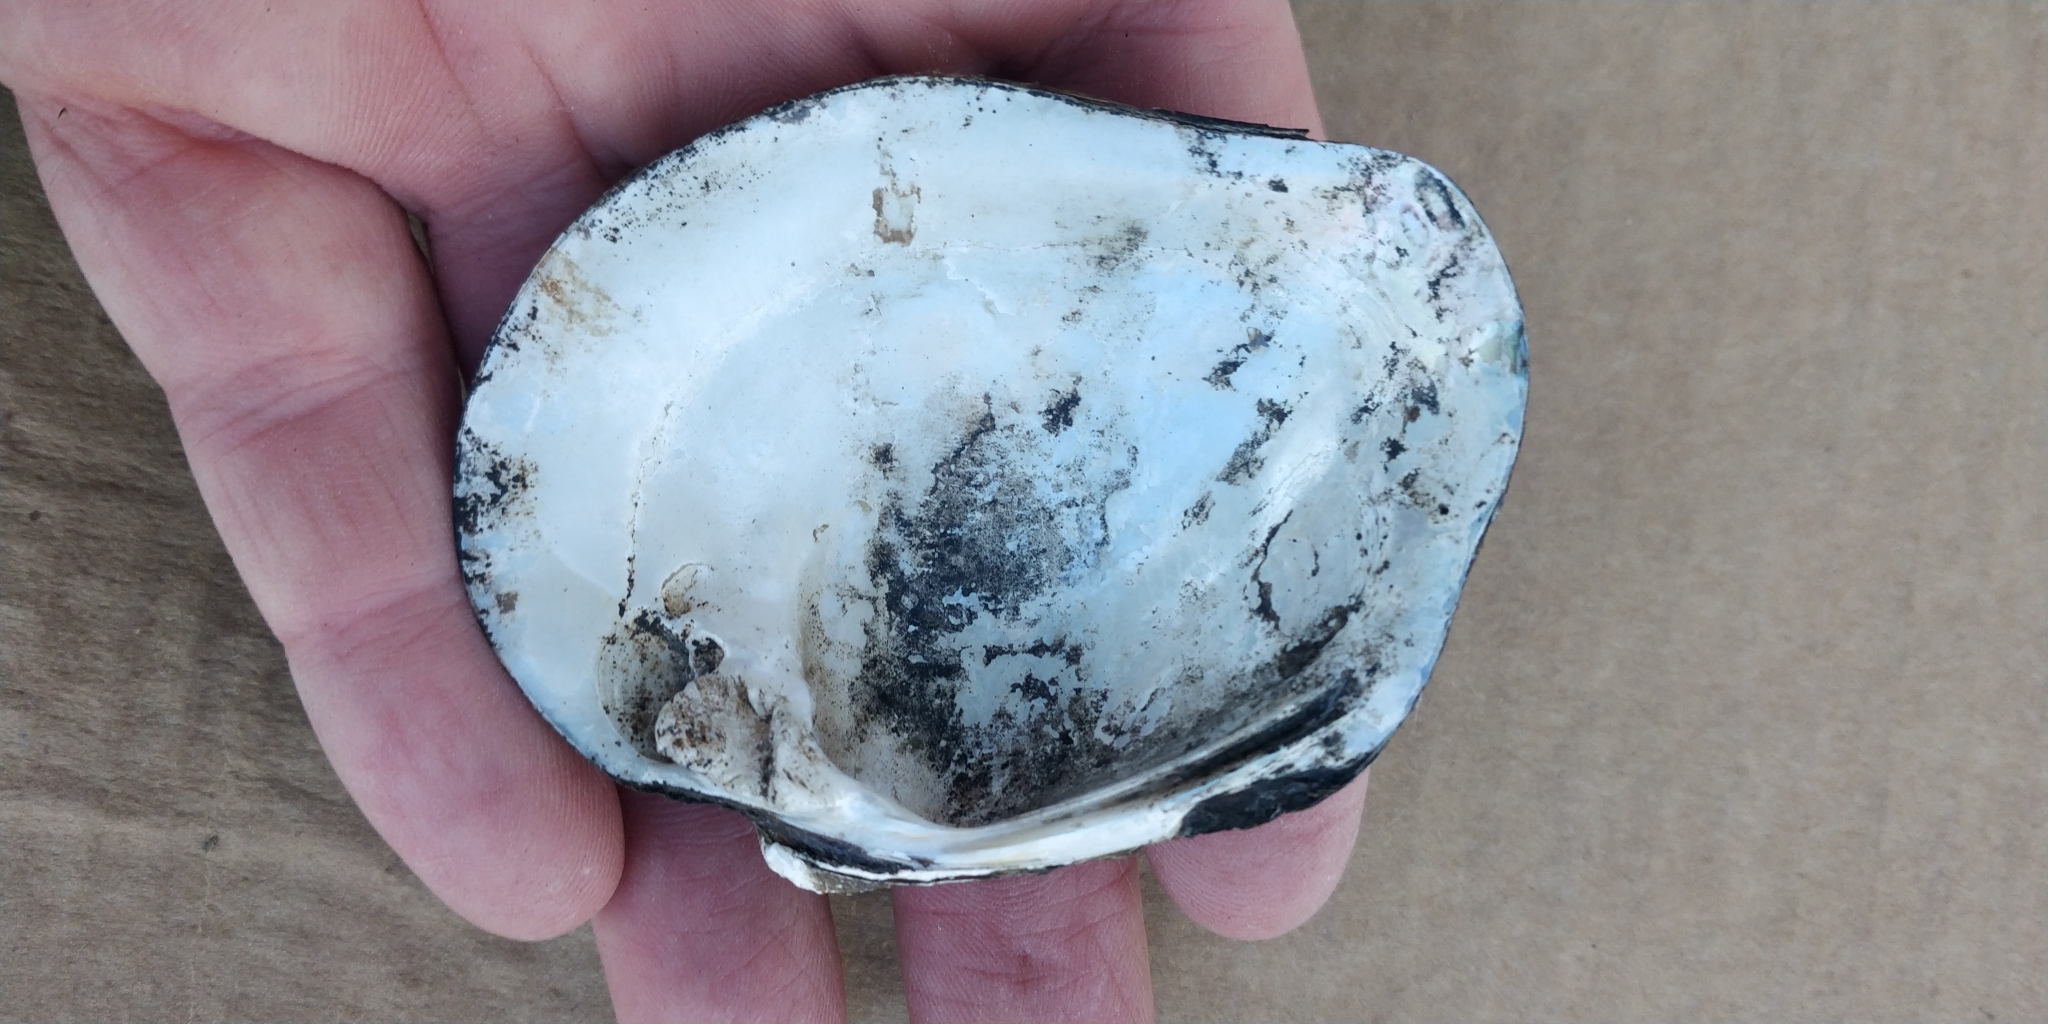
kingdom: Animalia
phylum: Mollusca
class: Bivalvia
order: Unionida
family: Unionidae
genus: Quadrula
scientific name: Quadrula quadrula
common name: Mapleleaf
